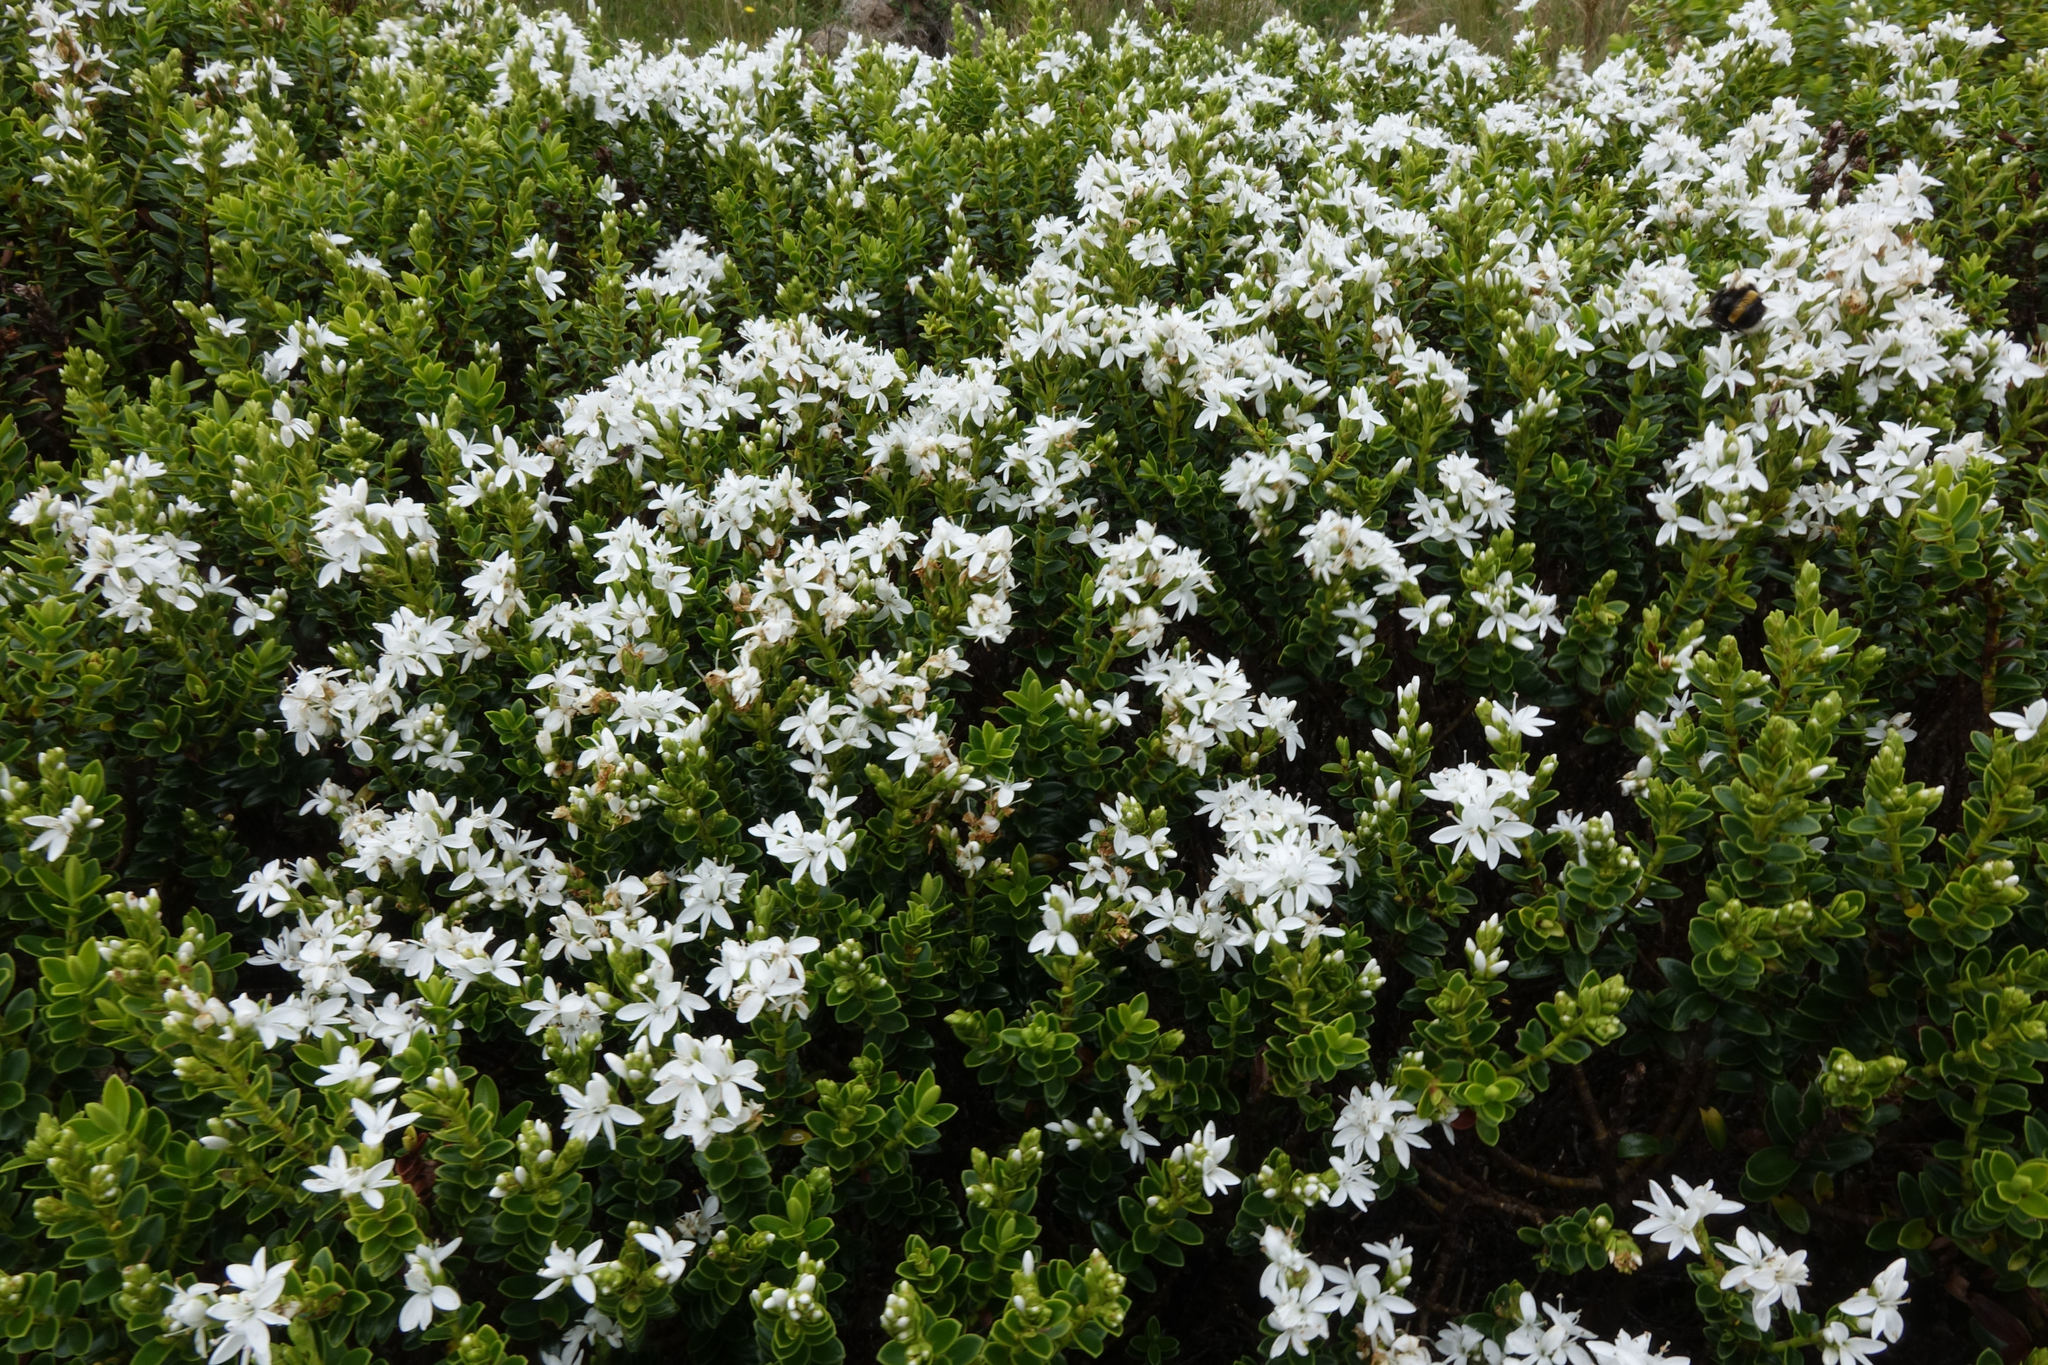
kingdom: Plantae
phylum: Tracheophyta
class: Magnoliopsida
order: Lamiales
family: Plantaginaceae
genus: Veronica
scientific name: Veronica odora
